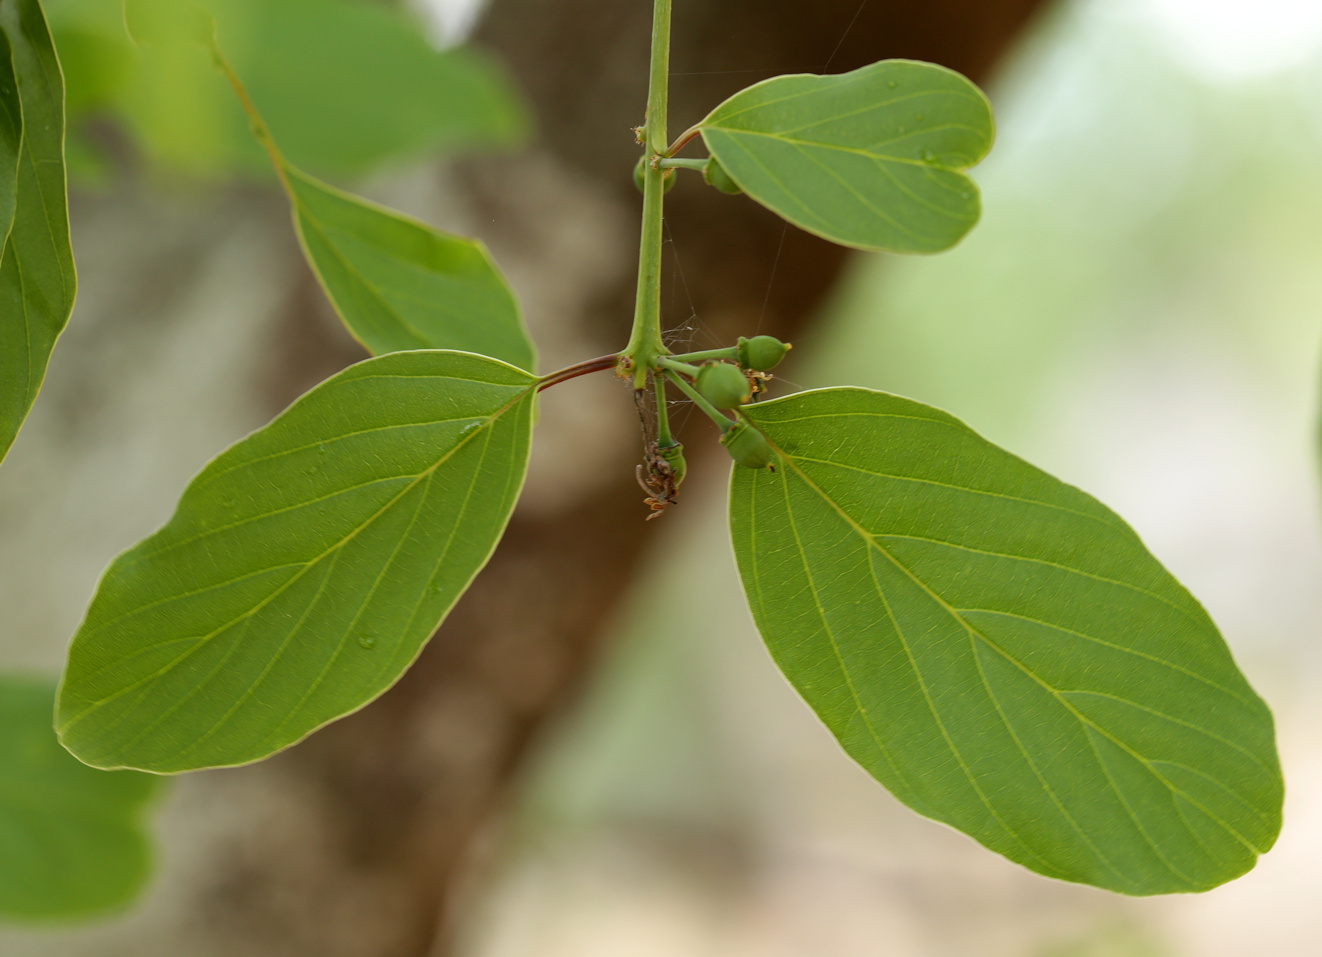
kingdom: Plantae
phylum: Tracheophyta
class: Magnoliopsida
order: Rosales
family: Rhamnaceae
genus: Phyllogeiton
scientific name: Phyllogeiton discolor
